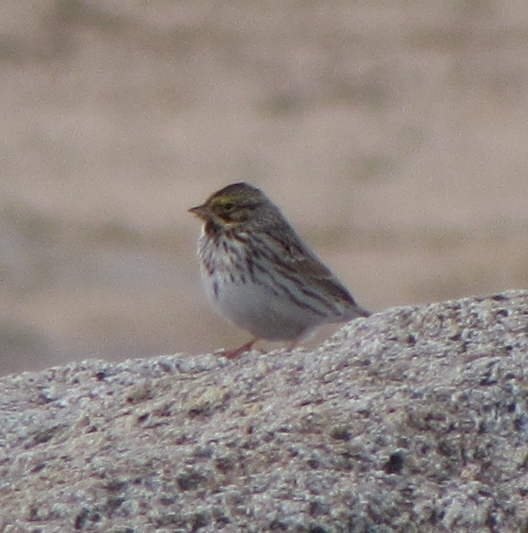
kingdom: Animalia
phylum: Chordata
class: Aves
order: Passeriformes
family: Passerellidae
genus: Passerculus
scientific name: Passerculus sandwichensis
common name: Savannah sparrow
